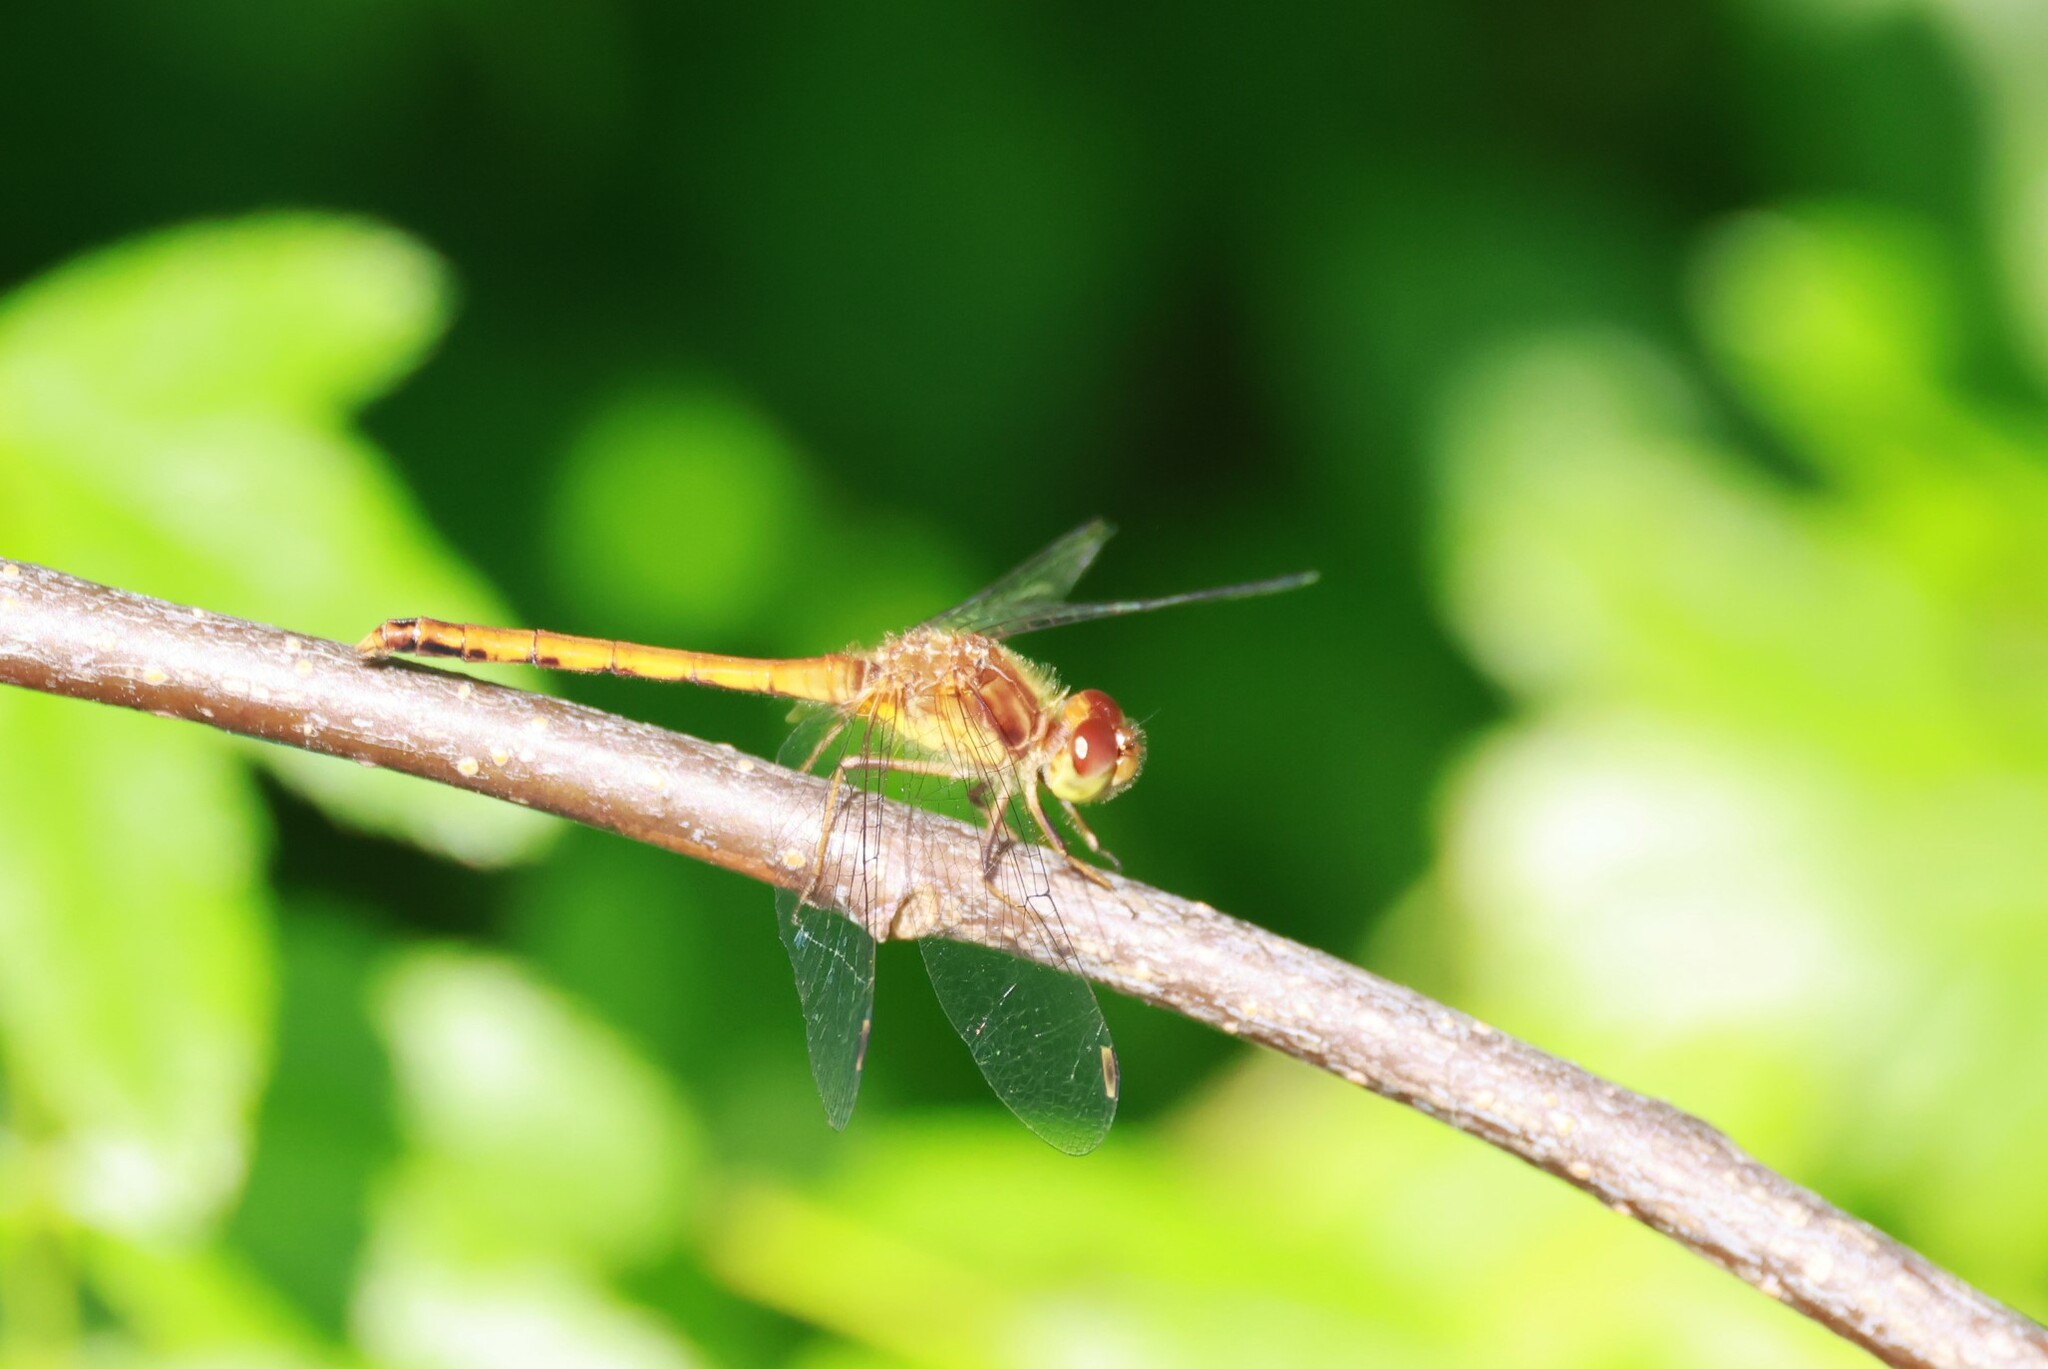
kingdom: Animalia
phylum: Arthropoda
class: Insecta
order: Odonata
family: Libellulidae
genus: Sympetrum
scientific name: Sympetrum vicinum
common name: Autumn meadowhawk
